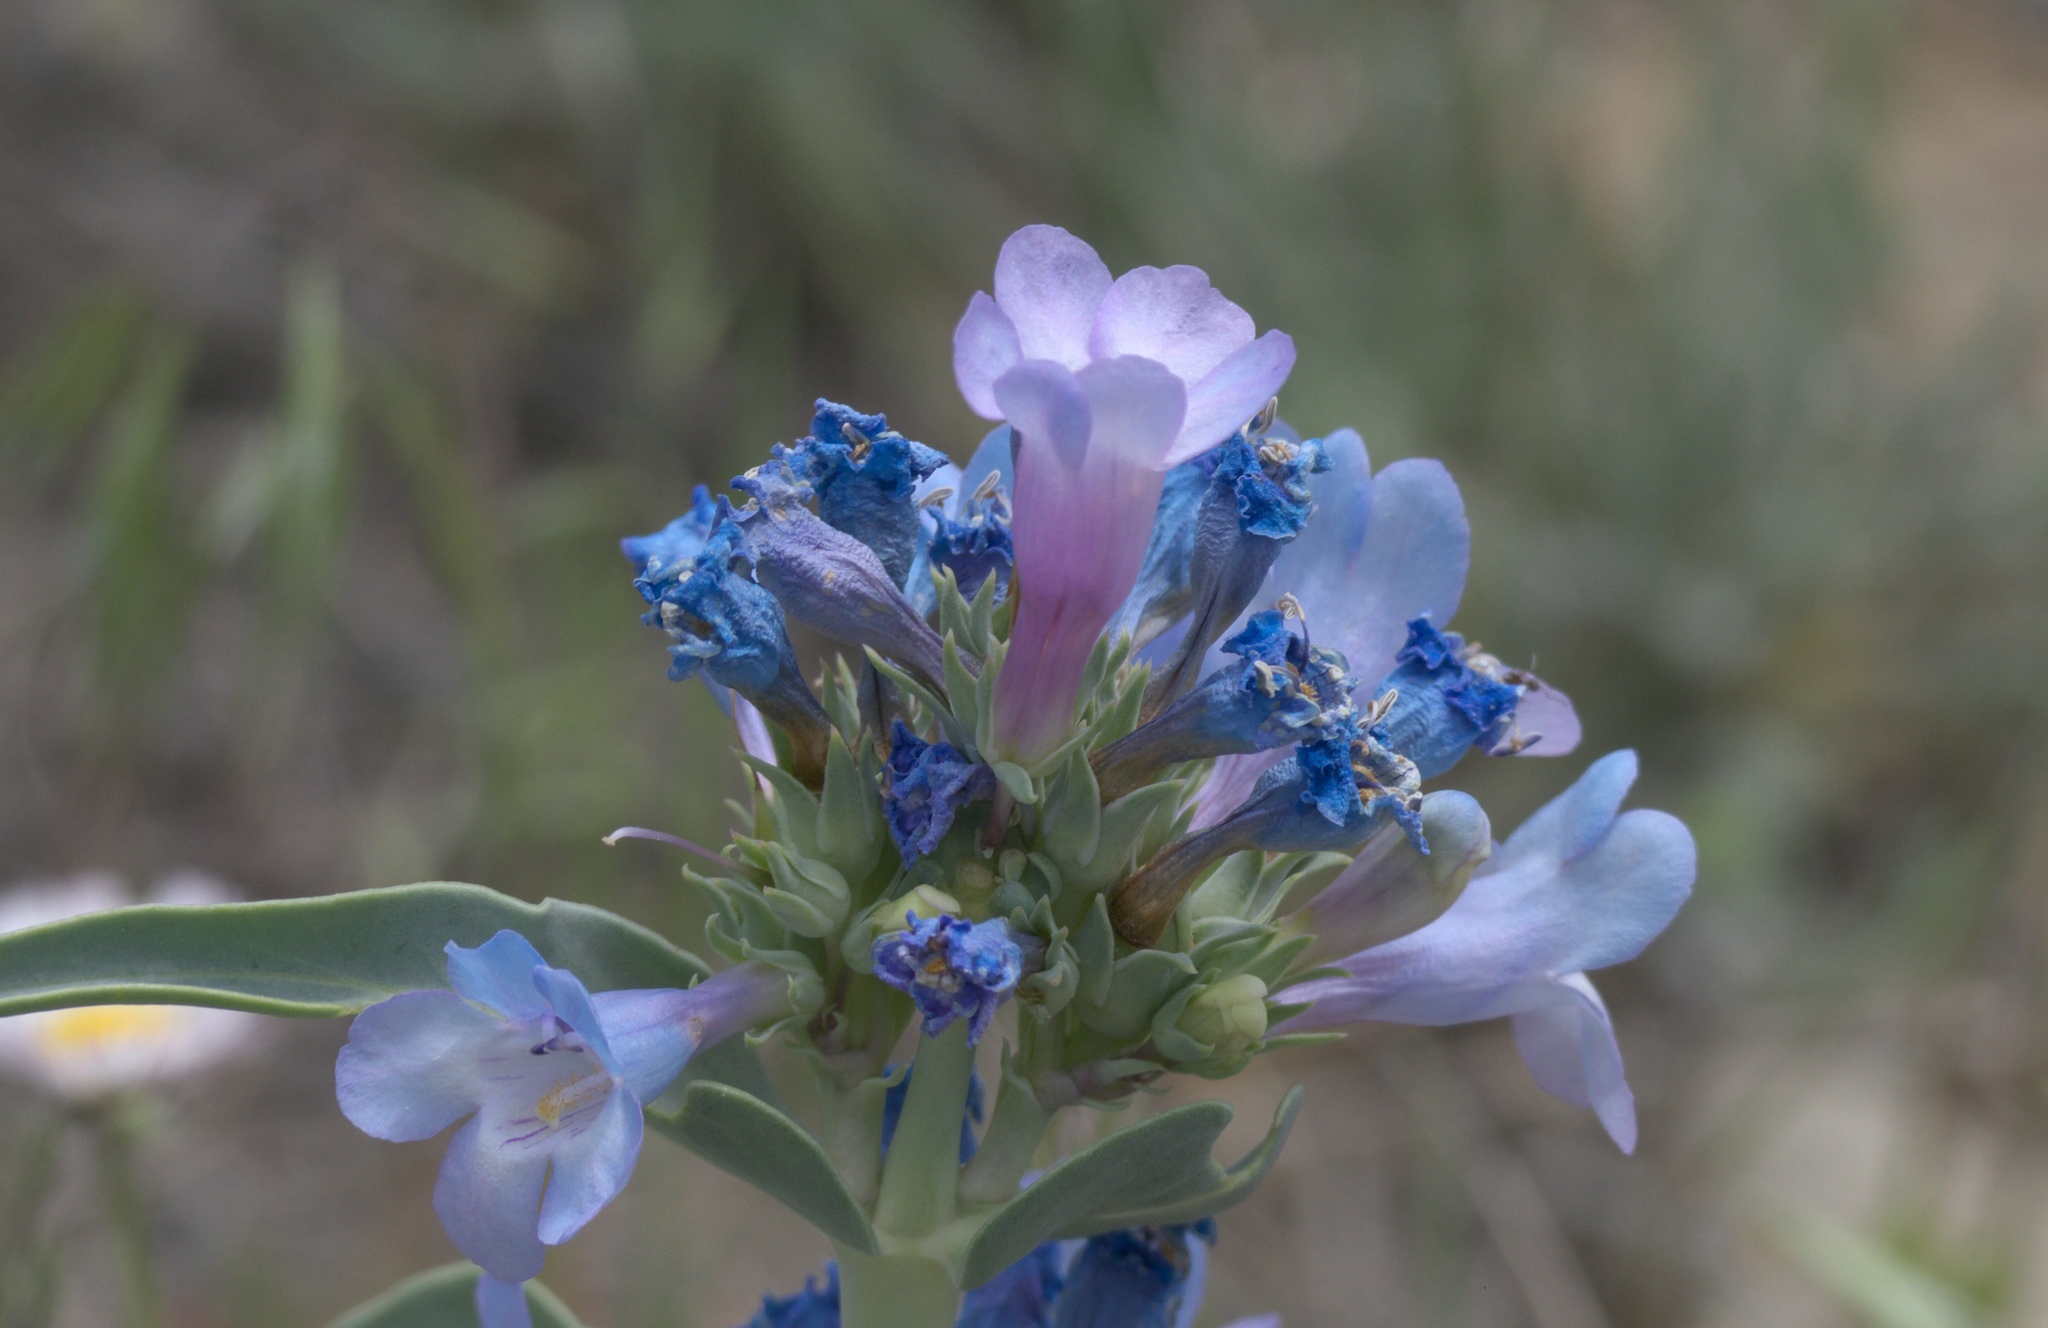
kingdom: Plantae
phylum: Tracheophyta
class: Magnoliopsida
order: Lamiales
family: Plantaginaceae
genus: Penstemon
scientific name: Penstemon angustifolius
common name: Narrow beardtongue
